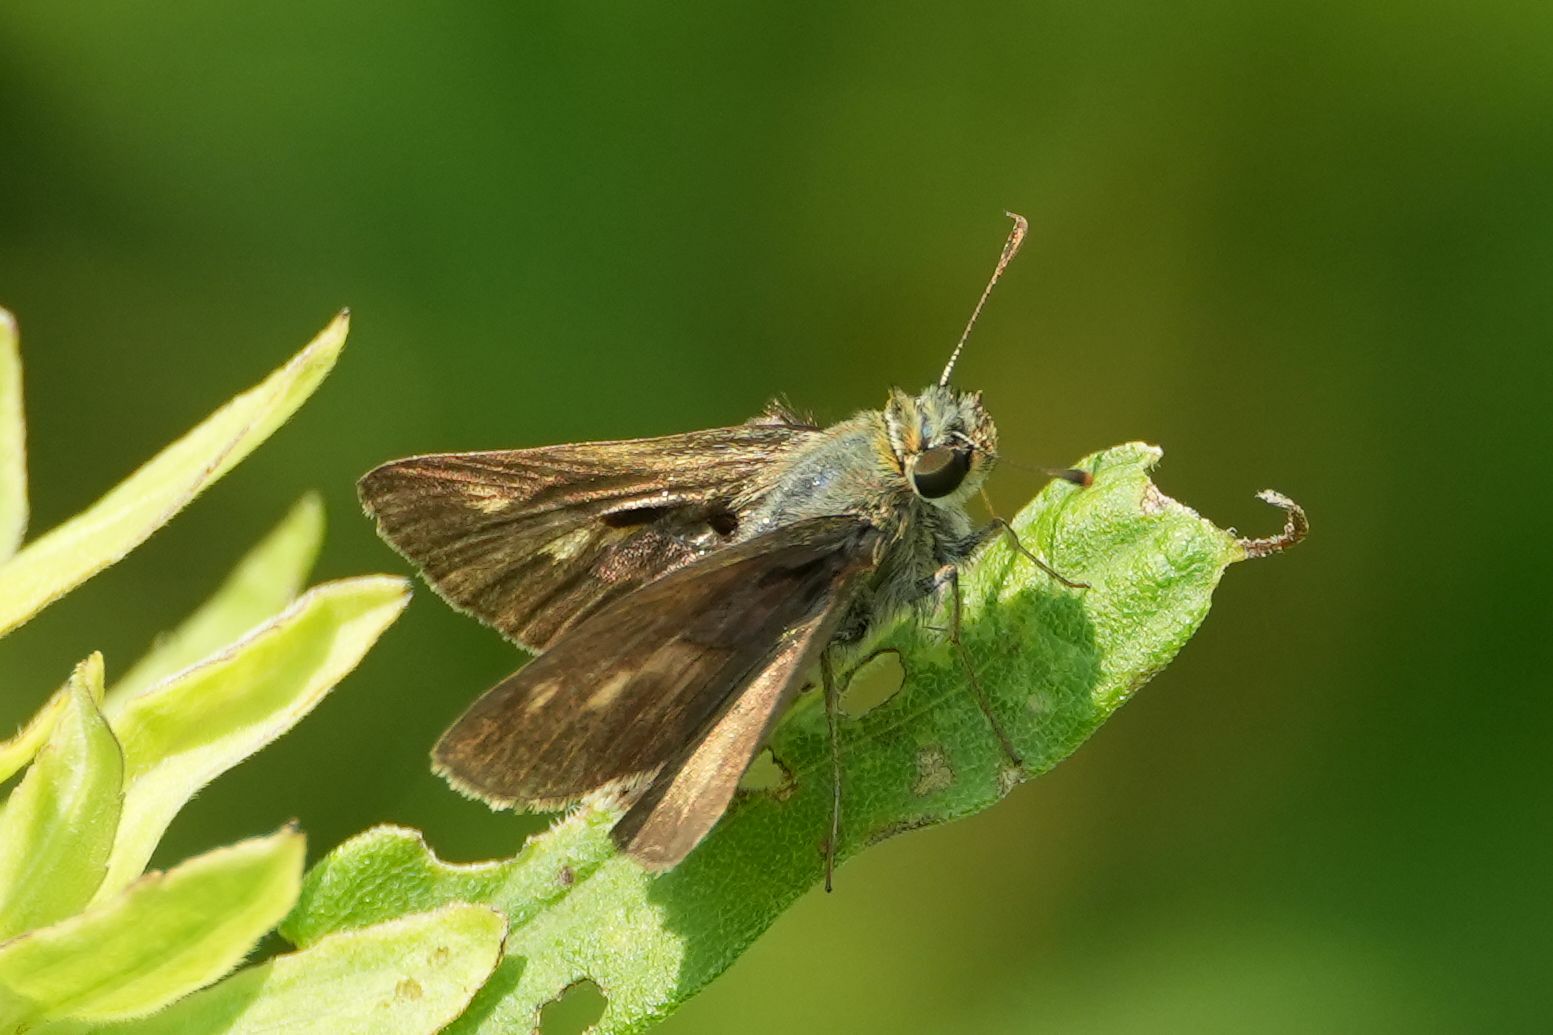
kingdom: Animalia
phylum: Arthropoda
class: Insecta
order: Lepidoptera
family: Hesperiidae
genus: Polites
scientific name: Polites egeremet
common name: Northern broken-dash
